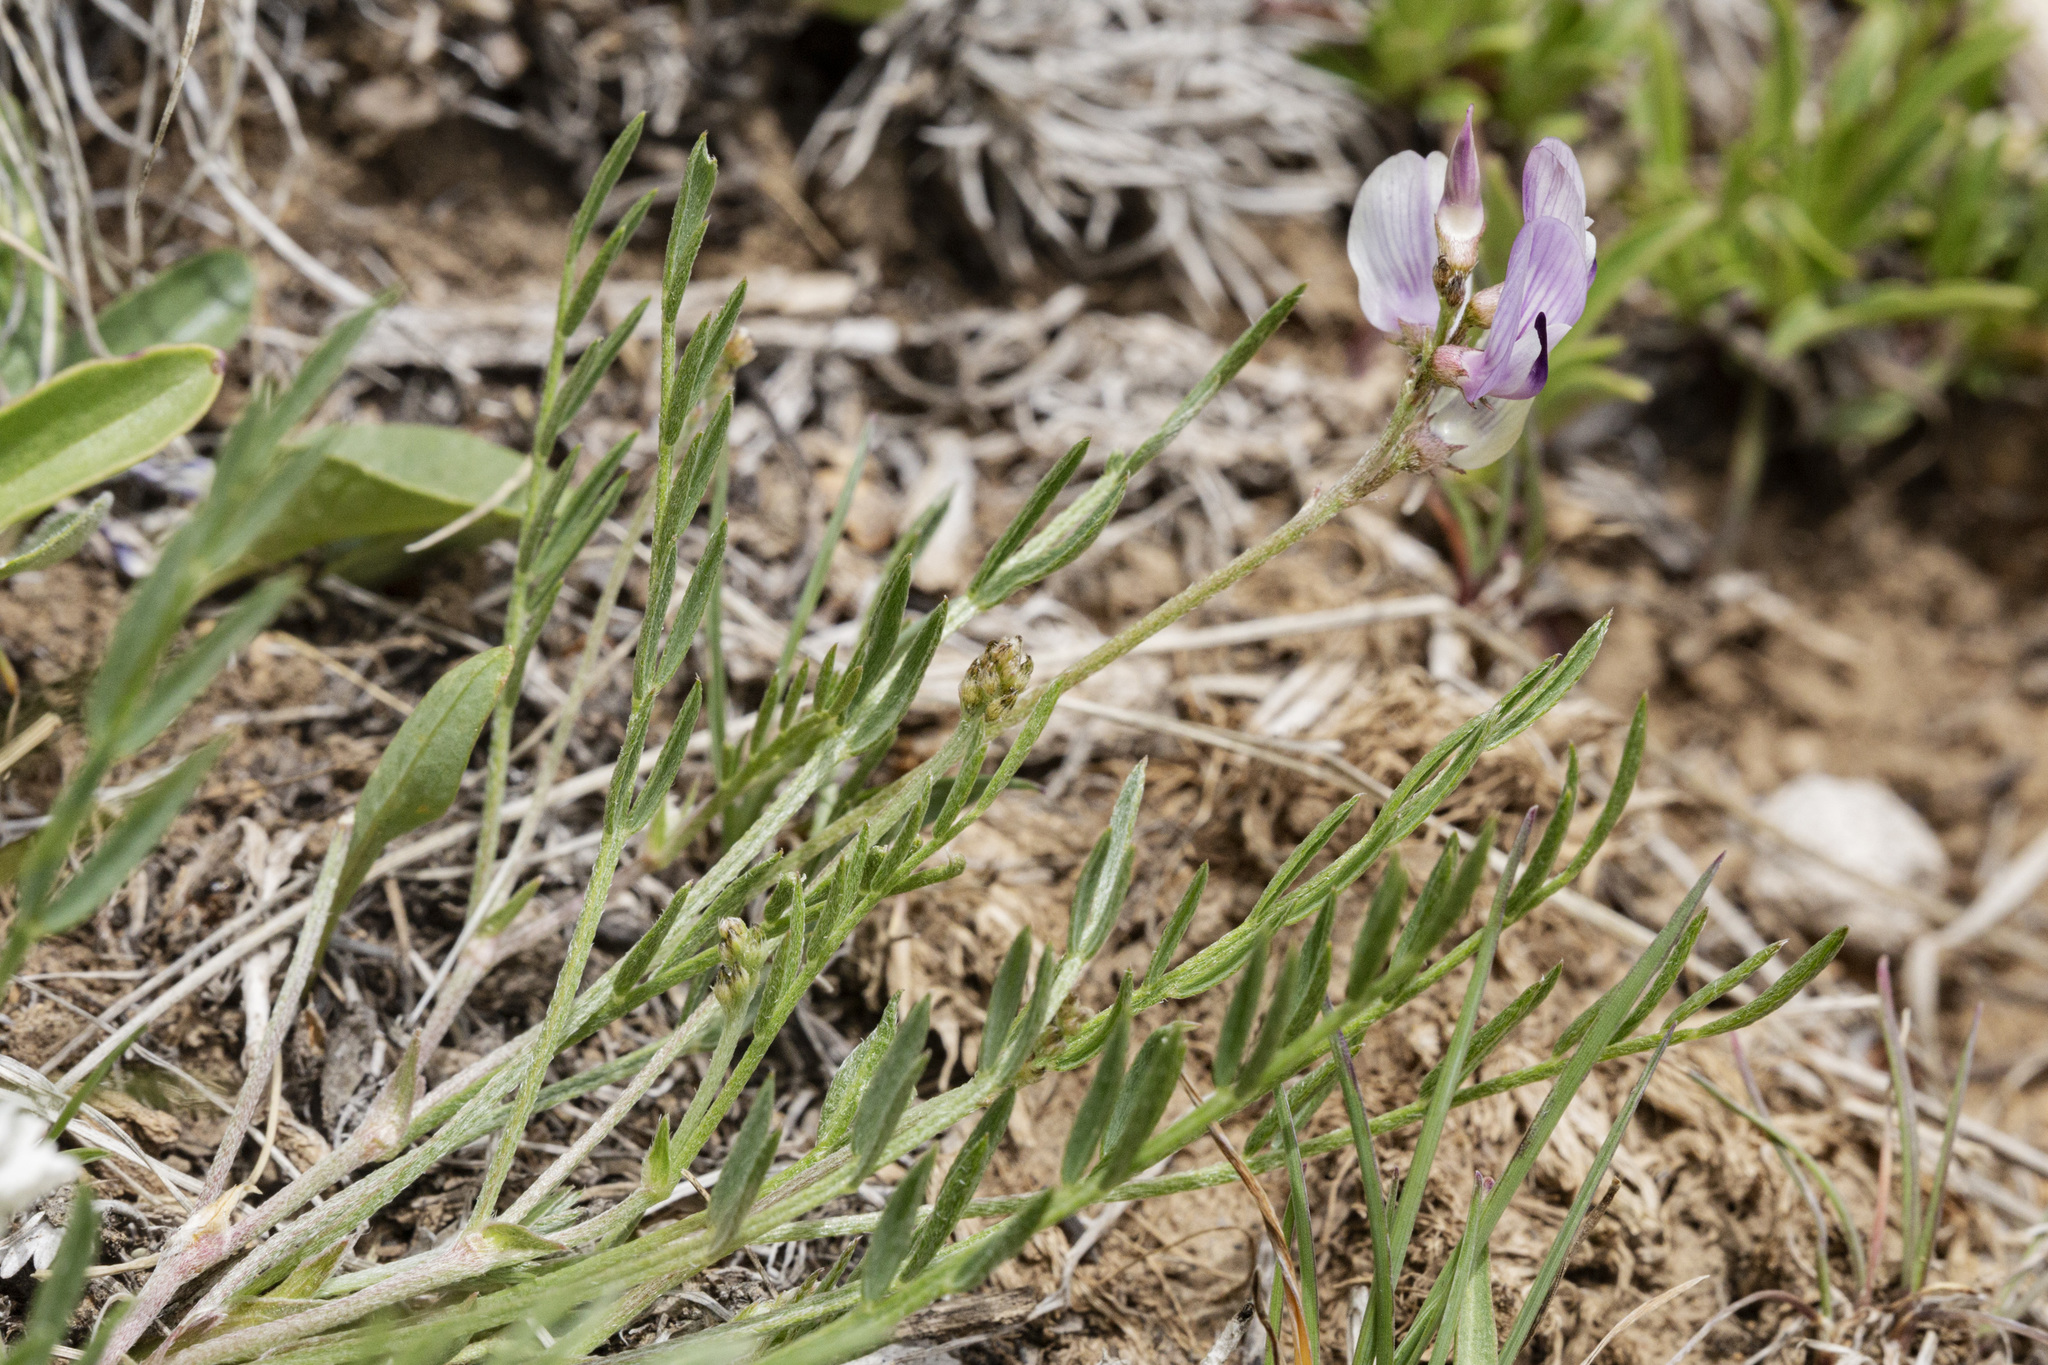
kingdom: Plantae
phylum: Tracheophyta
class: Magnoliopsida
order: Fabales
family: Fabaceae
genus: Astragalus
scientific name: Astragalus miser
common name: Timber milkvetch
